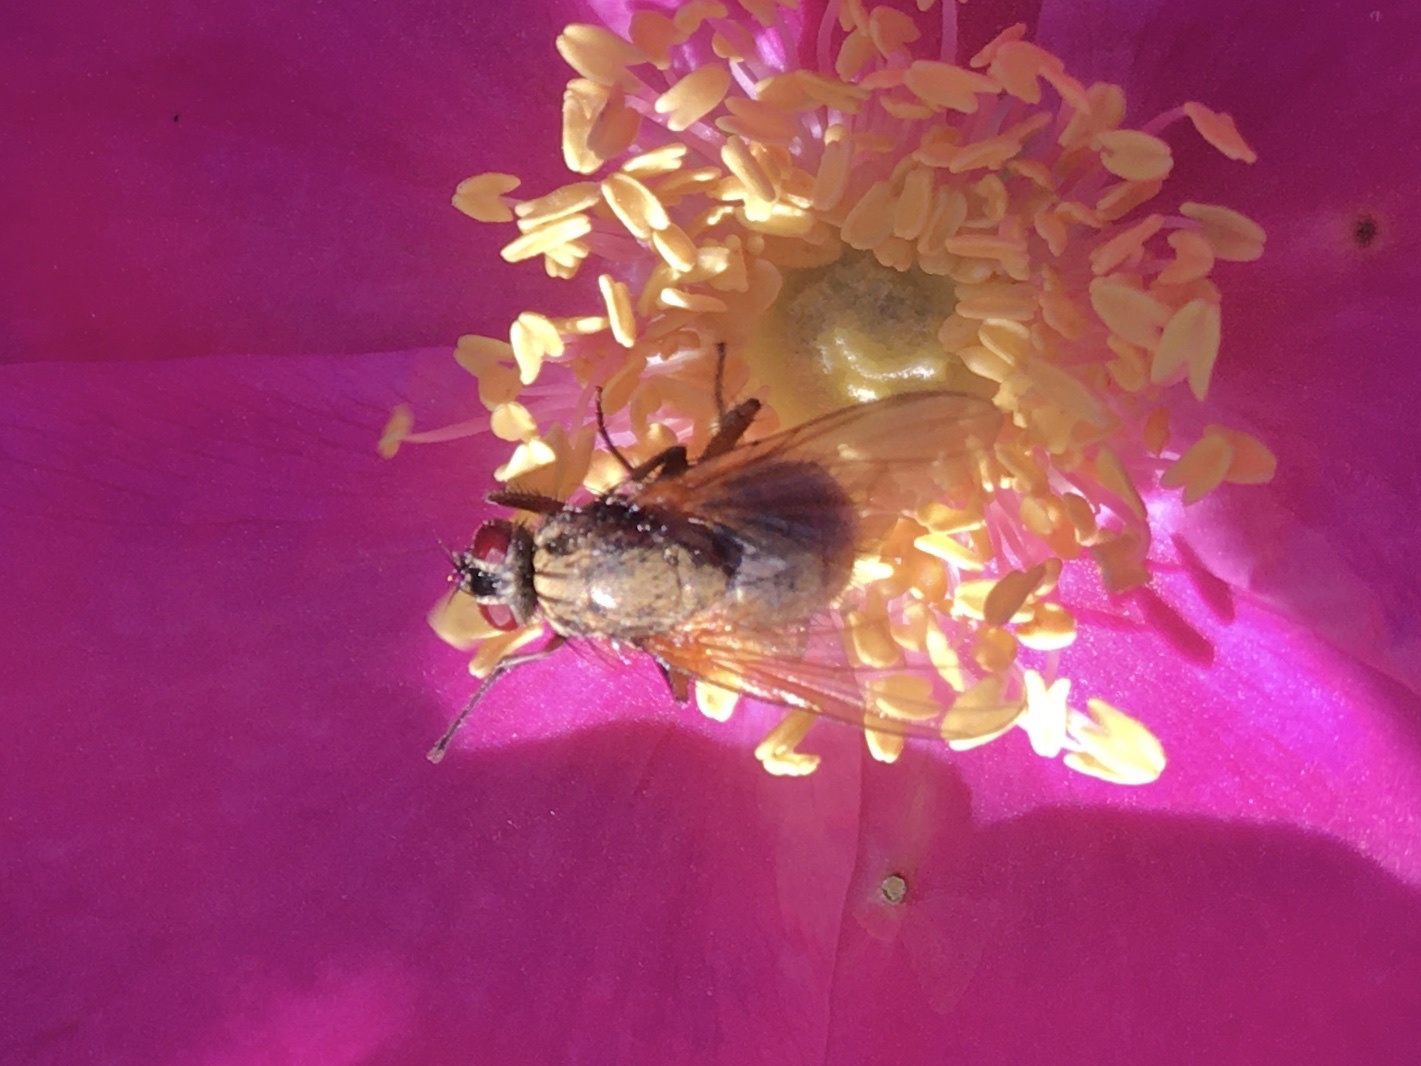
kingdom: Animalia
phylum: Arthropoda
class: Insecta
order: Diptera
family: Muscidae
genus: Phaonia
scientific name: Phaonia angelicae
